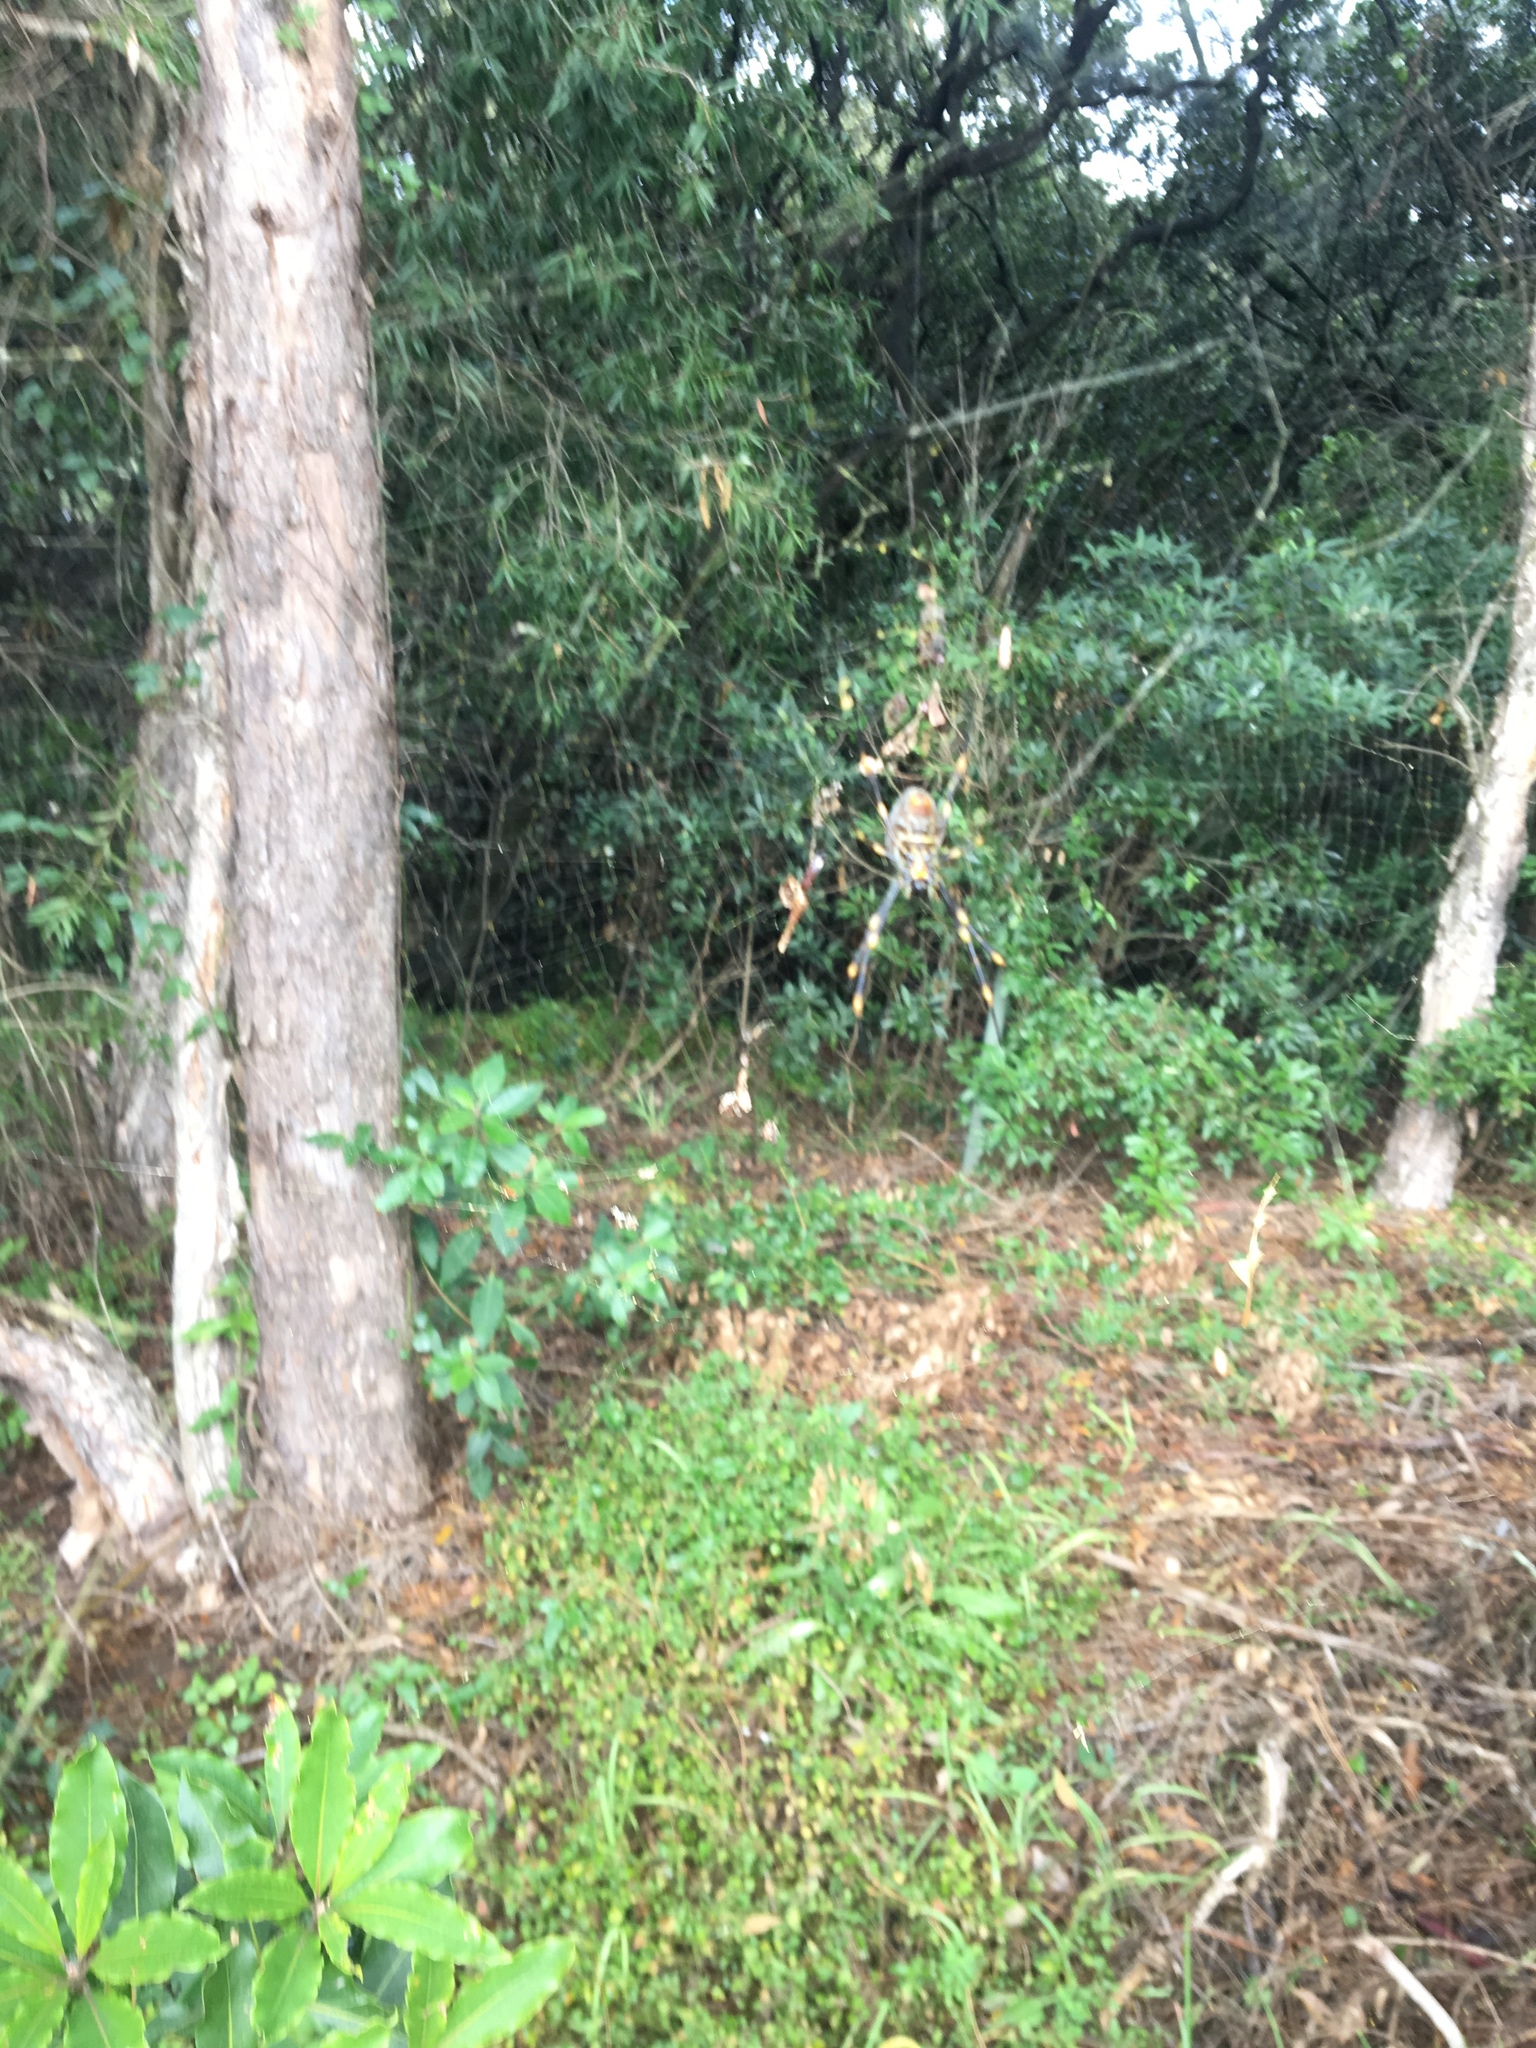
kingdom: Animalia
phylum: Arthropoda
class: Arachnida
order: Araneae
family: Araneidae
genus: Trichonephila
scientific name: Trichonephila plumipes
